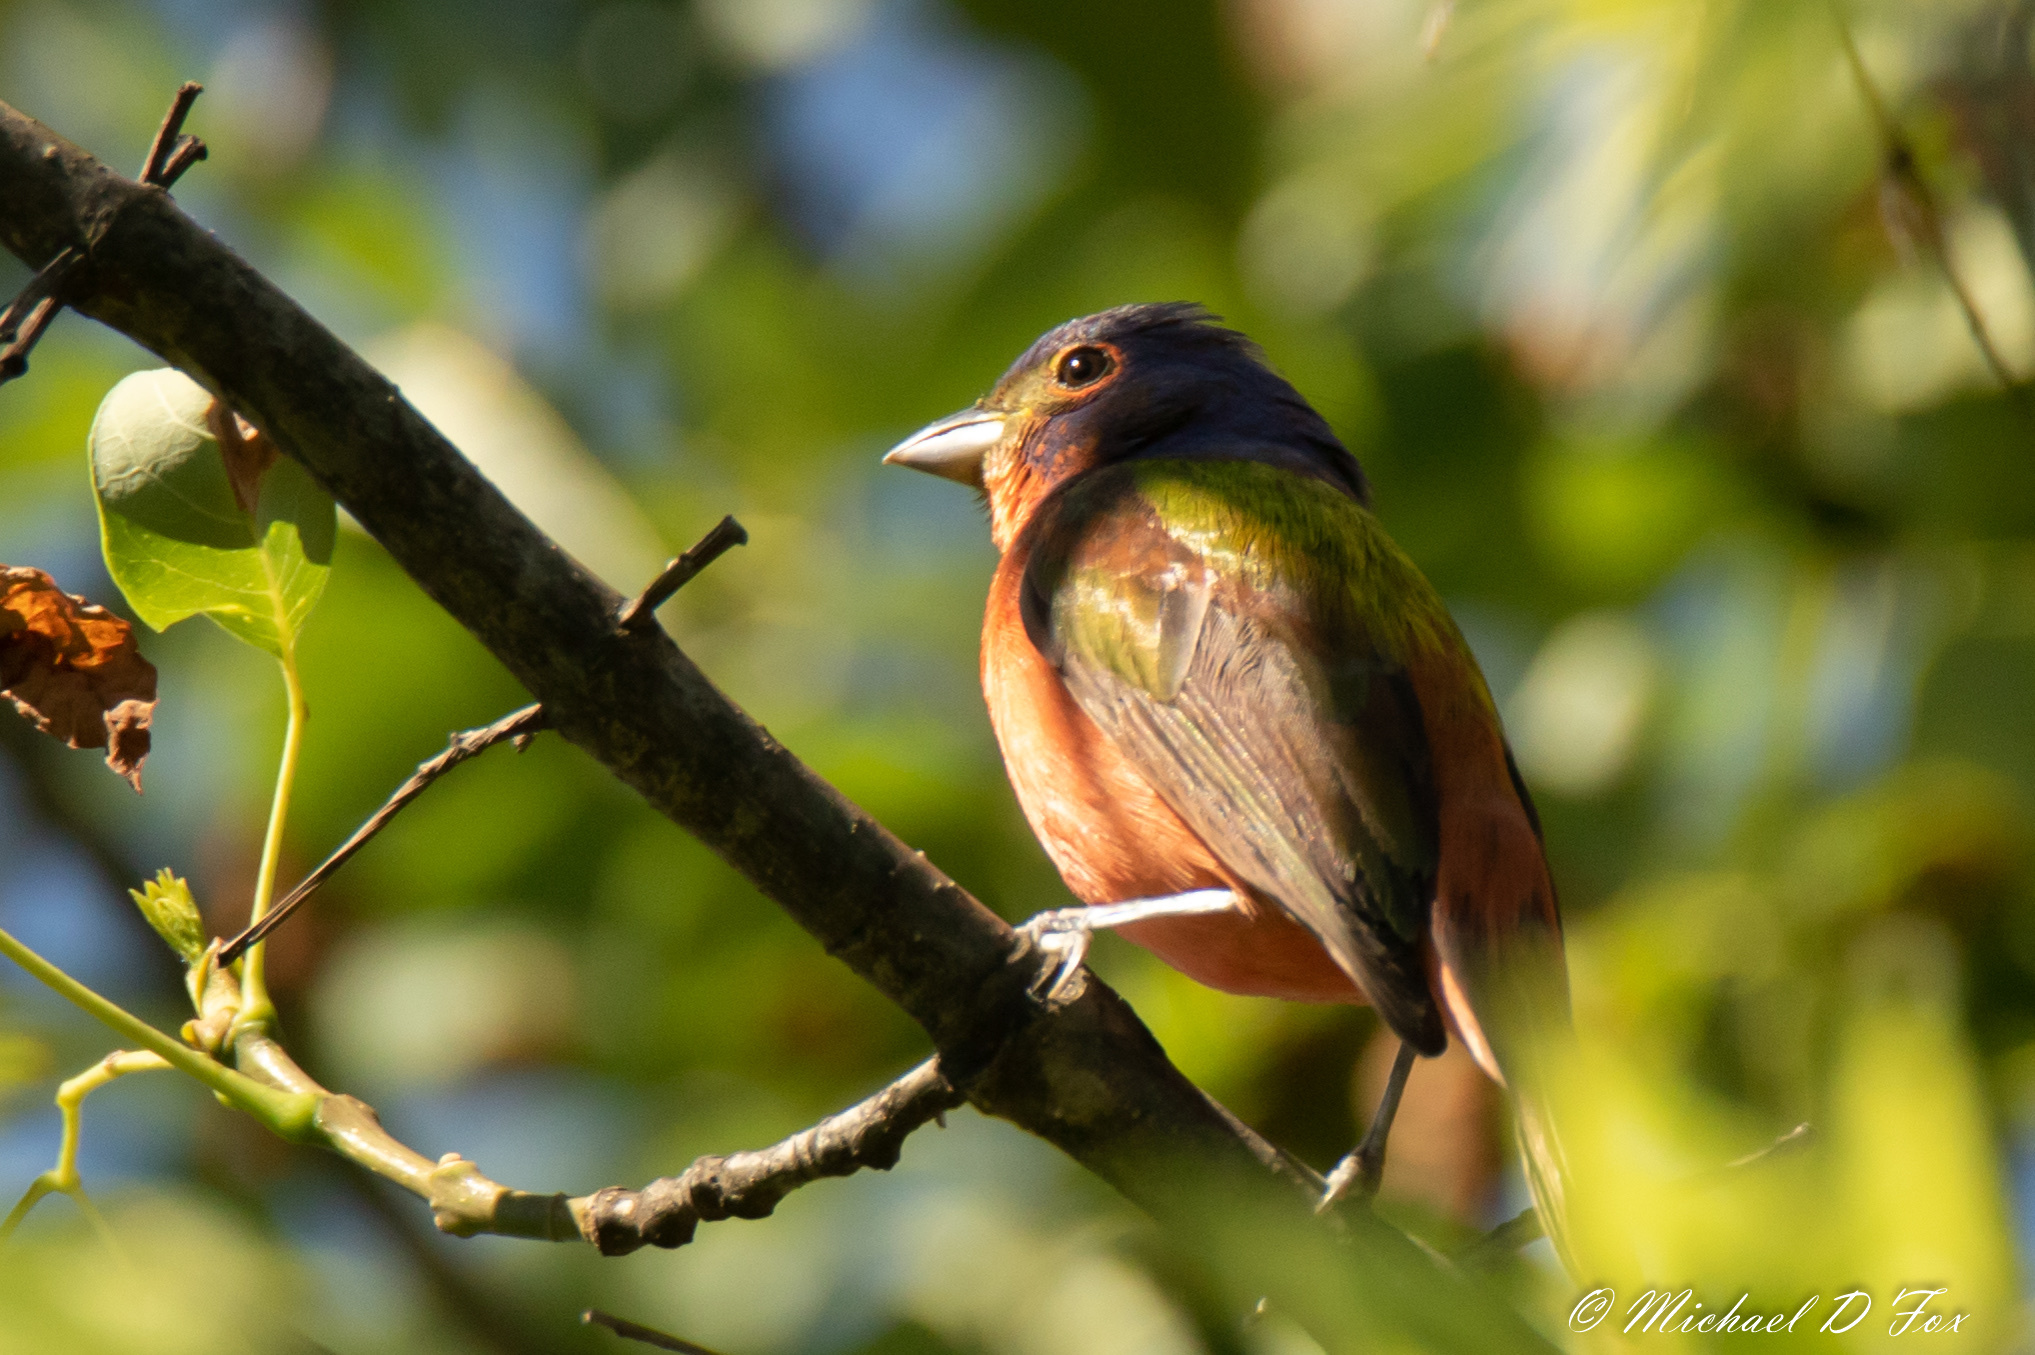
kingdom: Animalia
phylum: Chordata
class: Aves
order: Passeriformes
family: Cardinalidae
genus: Passerina
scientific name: Passerina ciris
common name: Painted bunting
